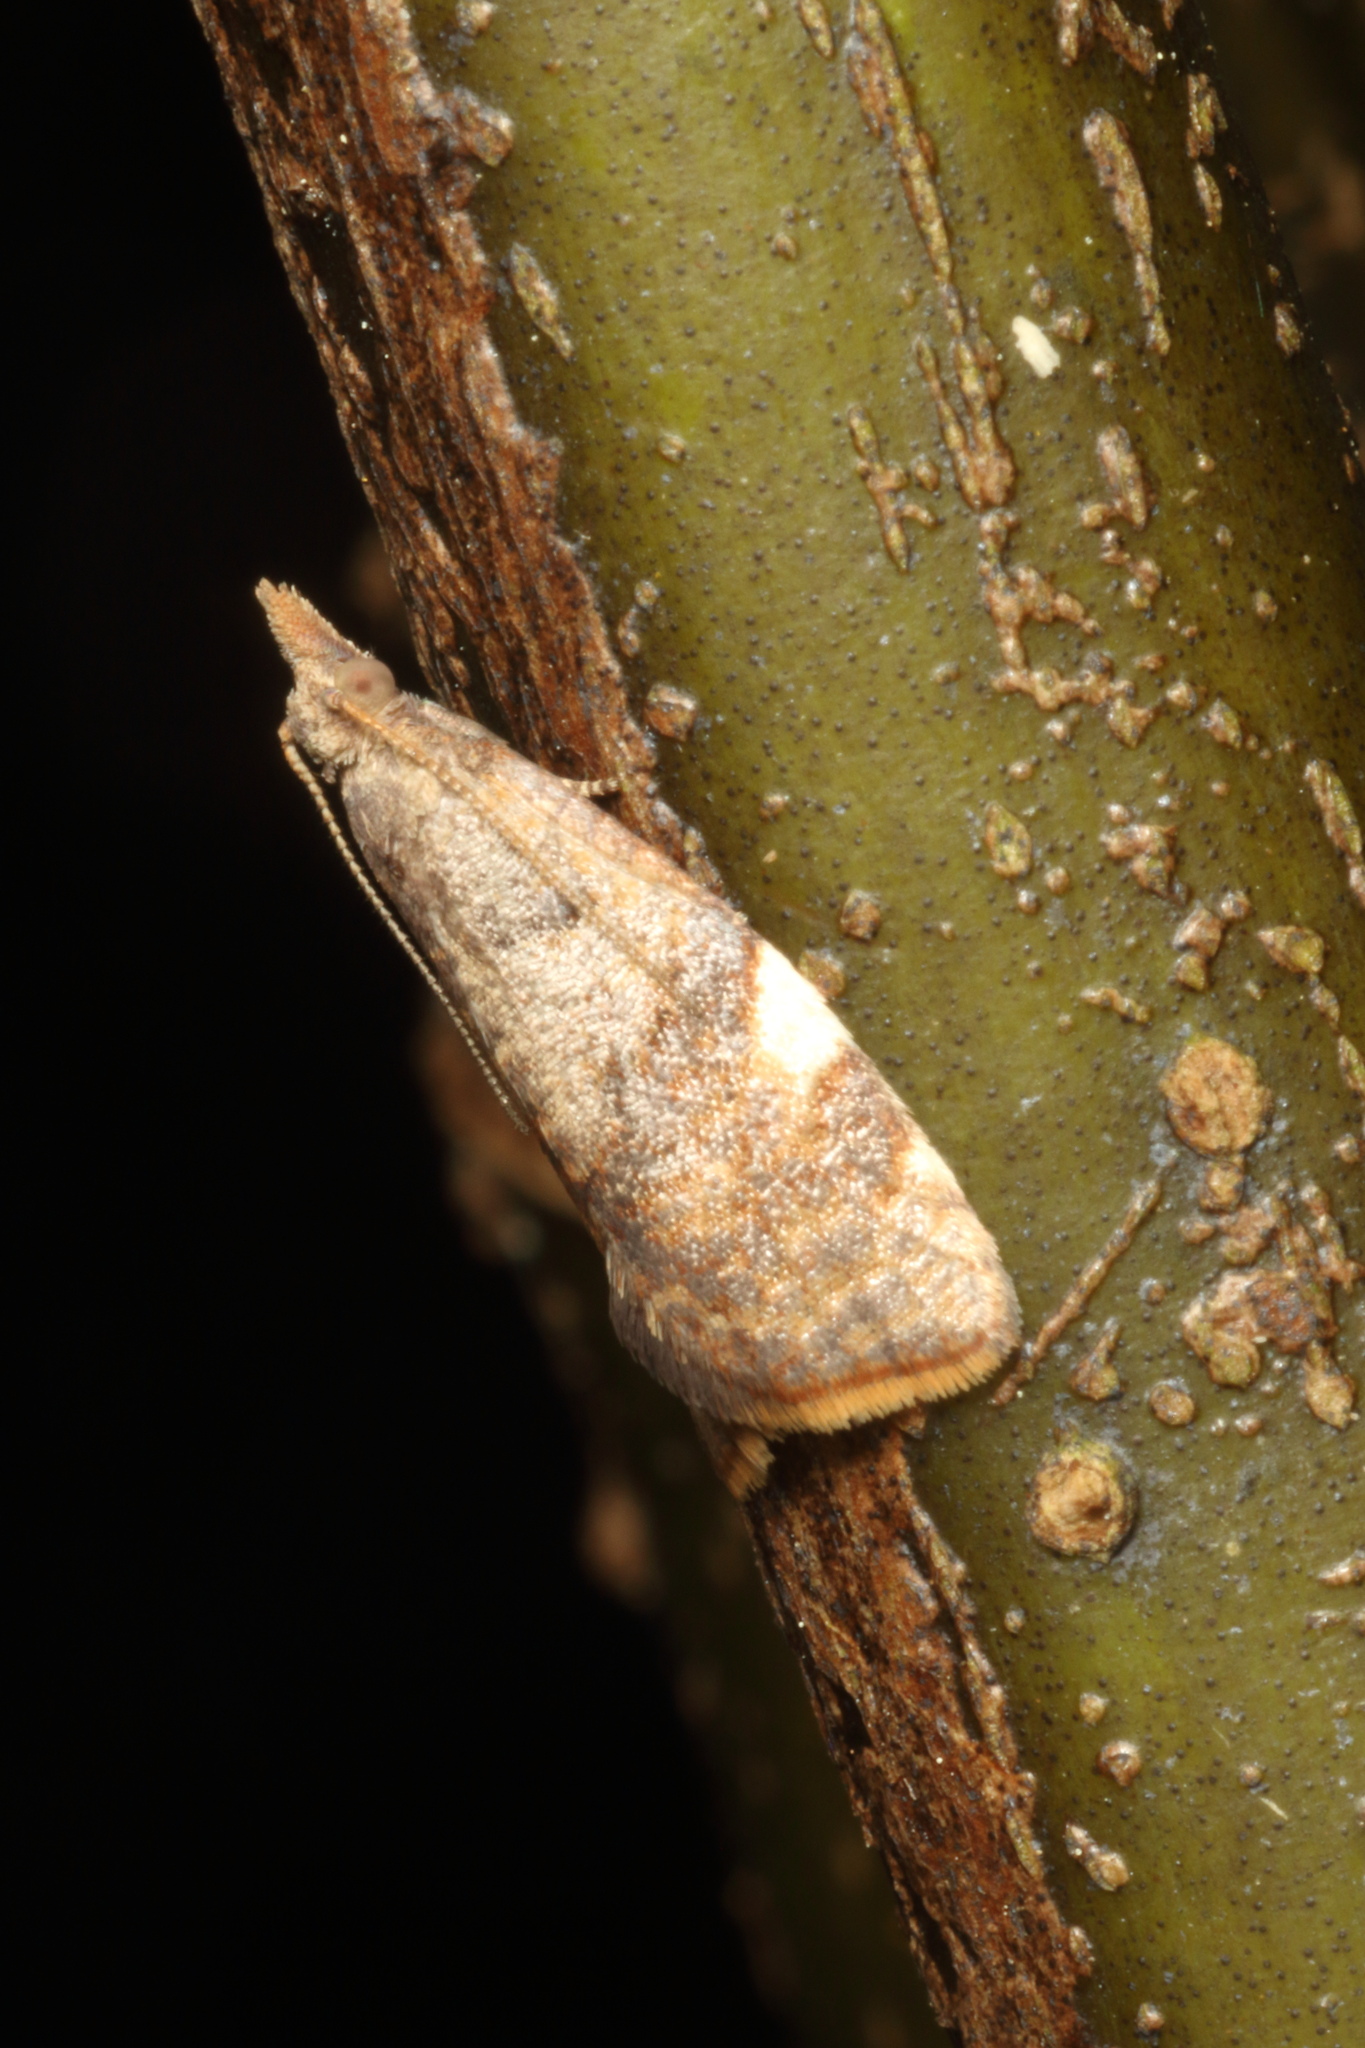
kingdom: Animalia
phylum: Arthropoda
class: Insecta
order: Lepidoptera
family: Tortricidae
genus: Catamacta
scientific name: Catamacta gavisana
